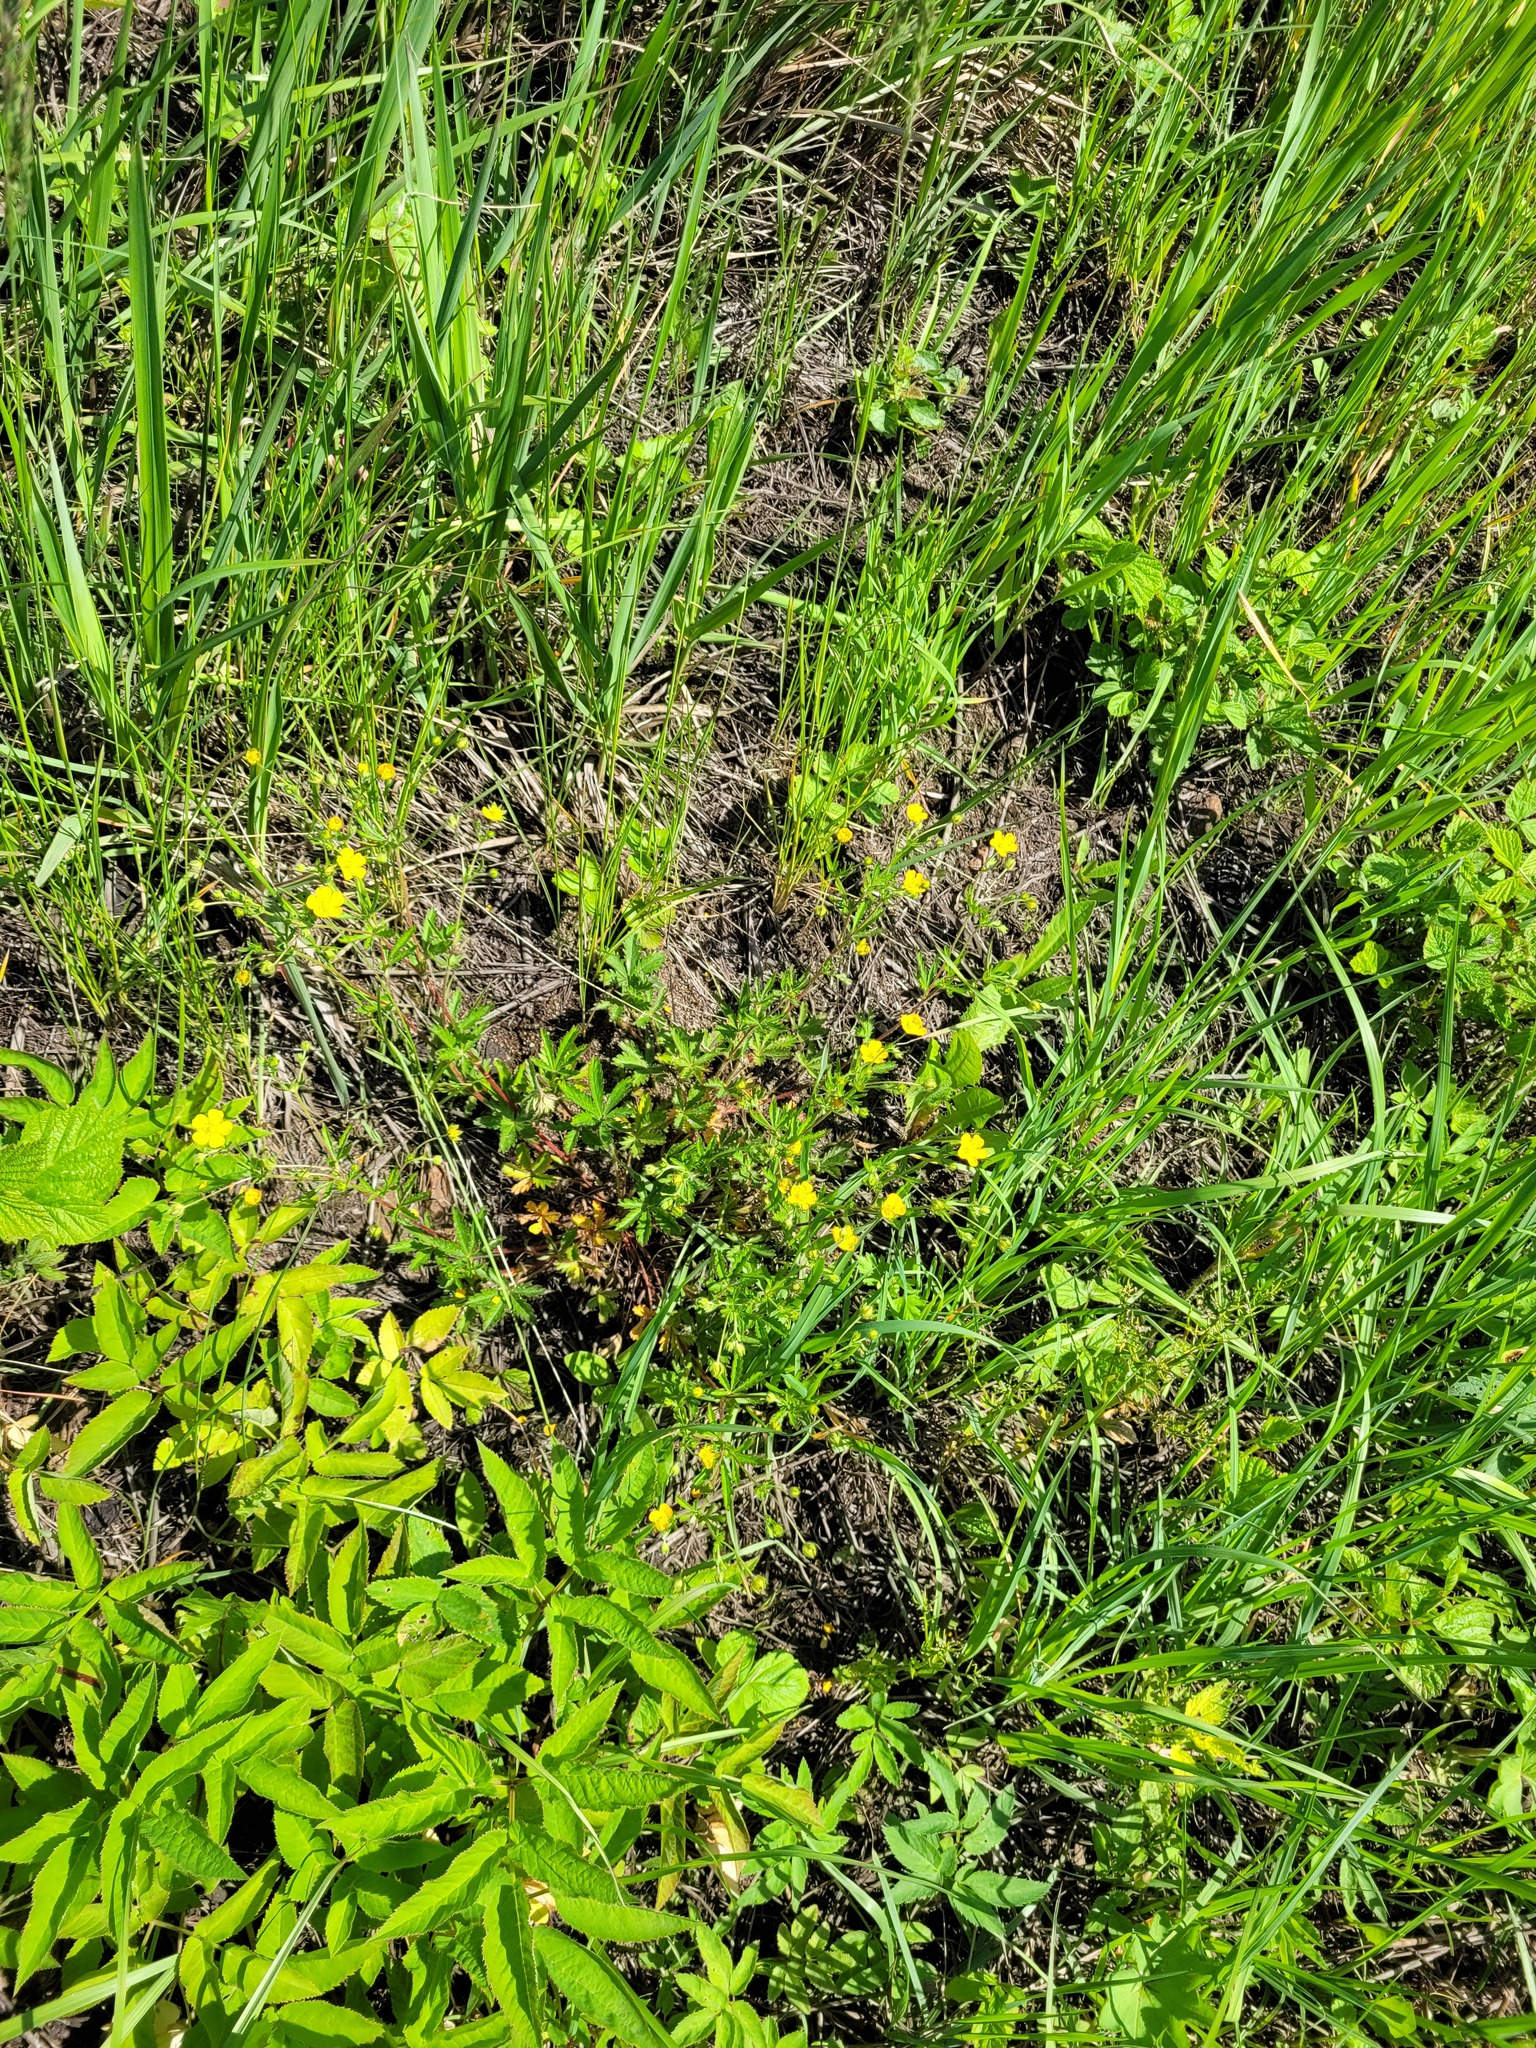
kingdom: Plantae
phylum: Tracheophyta
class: Magnoliopsida
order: Rosales
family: Rosaceae
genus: Potentilla
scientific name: Potentilla thuringiaca
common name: European cinquefoil
